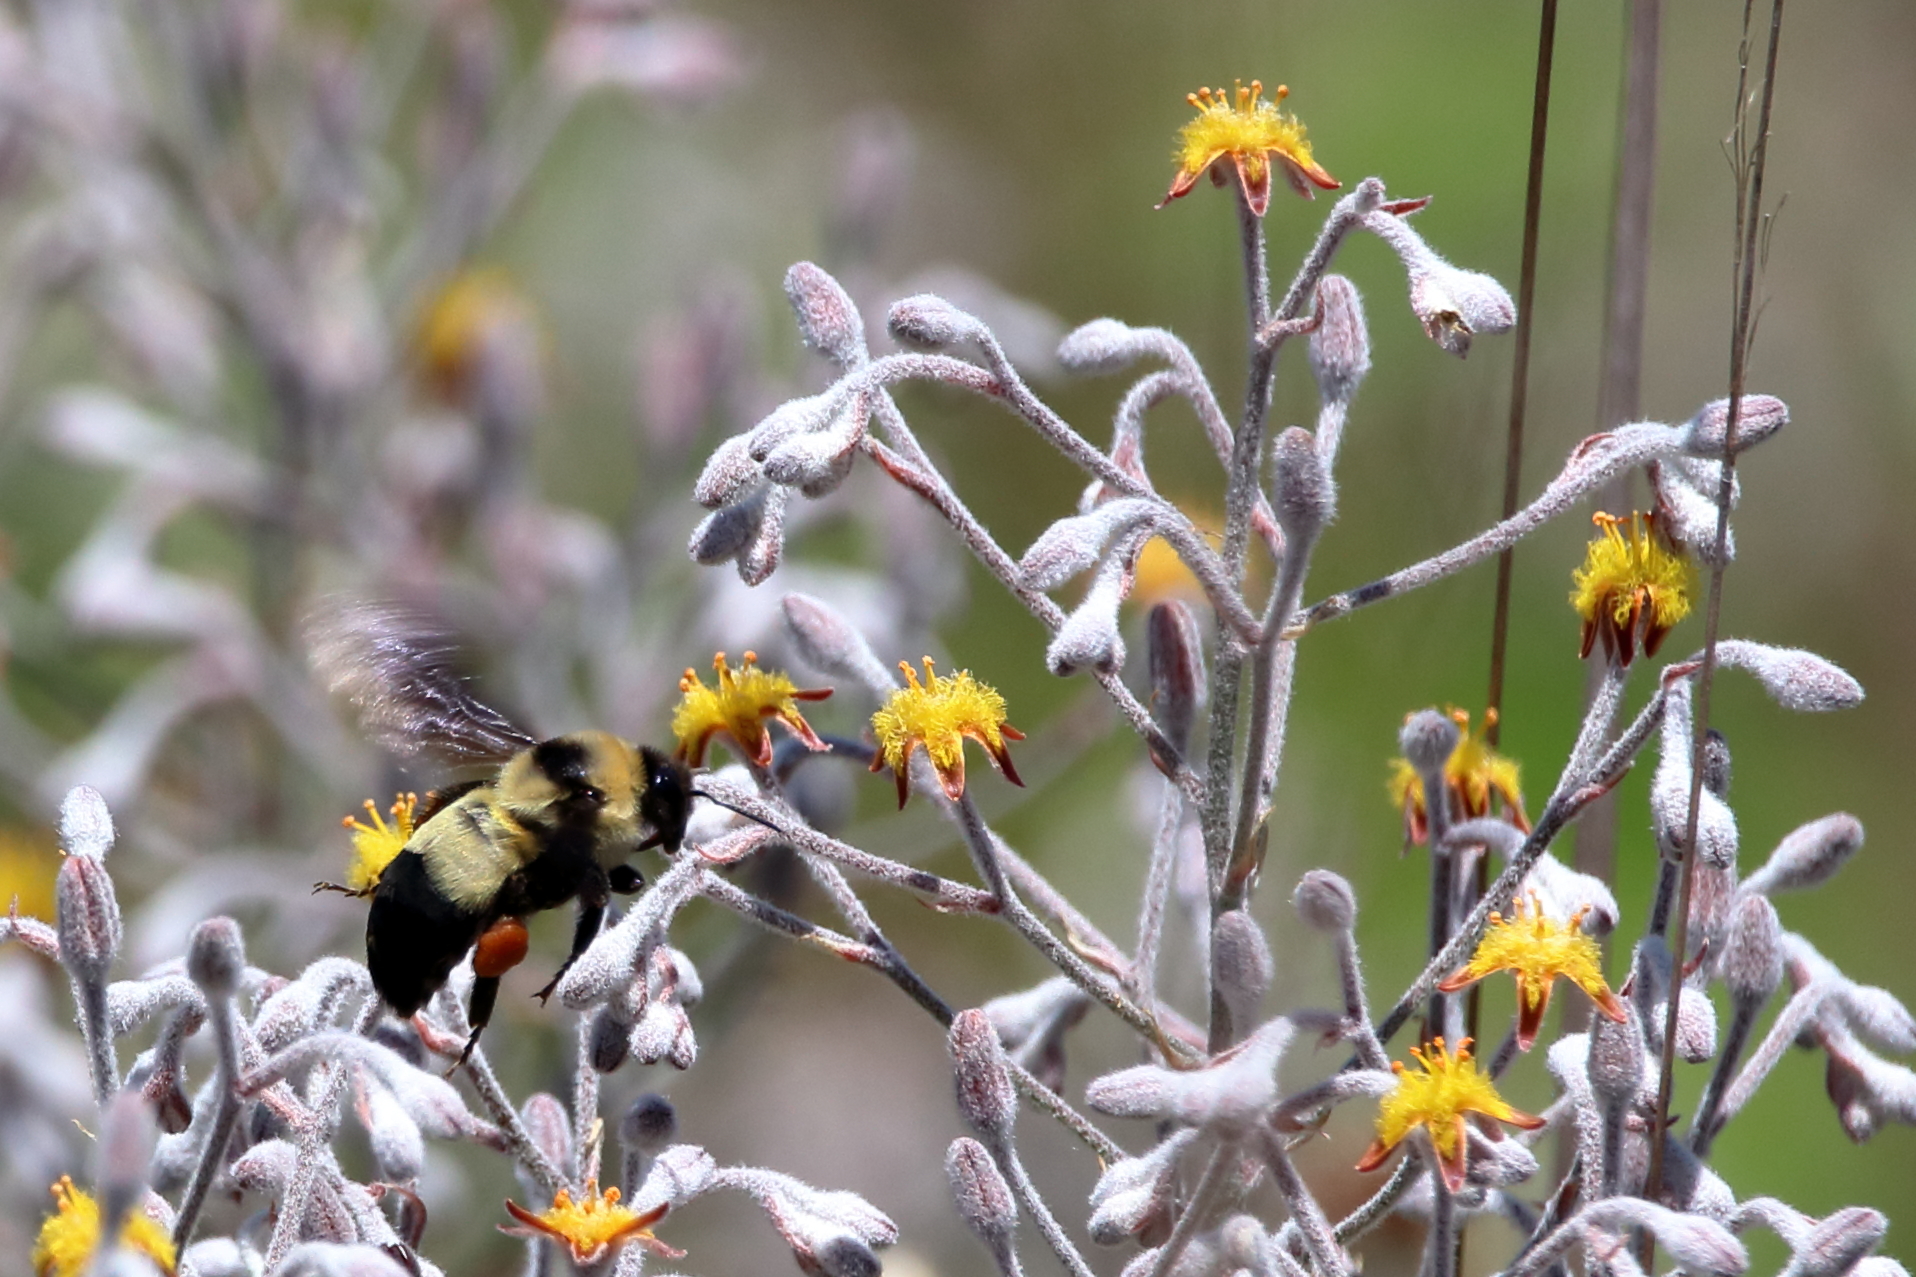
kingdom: Animalia
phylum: Arthropoda
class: Insecta
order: Hymenoptera
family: Apidae
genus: Bombus
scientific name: Bombus fraternus
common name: Southern plains bumble bee
